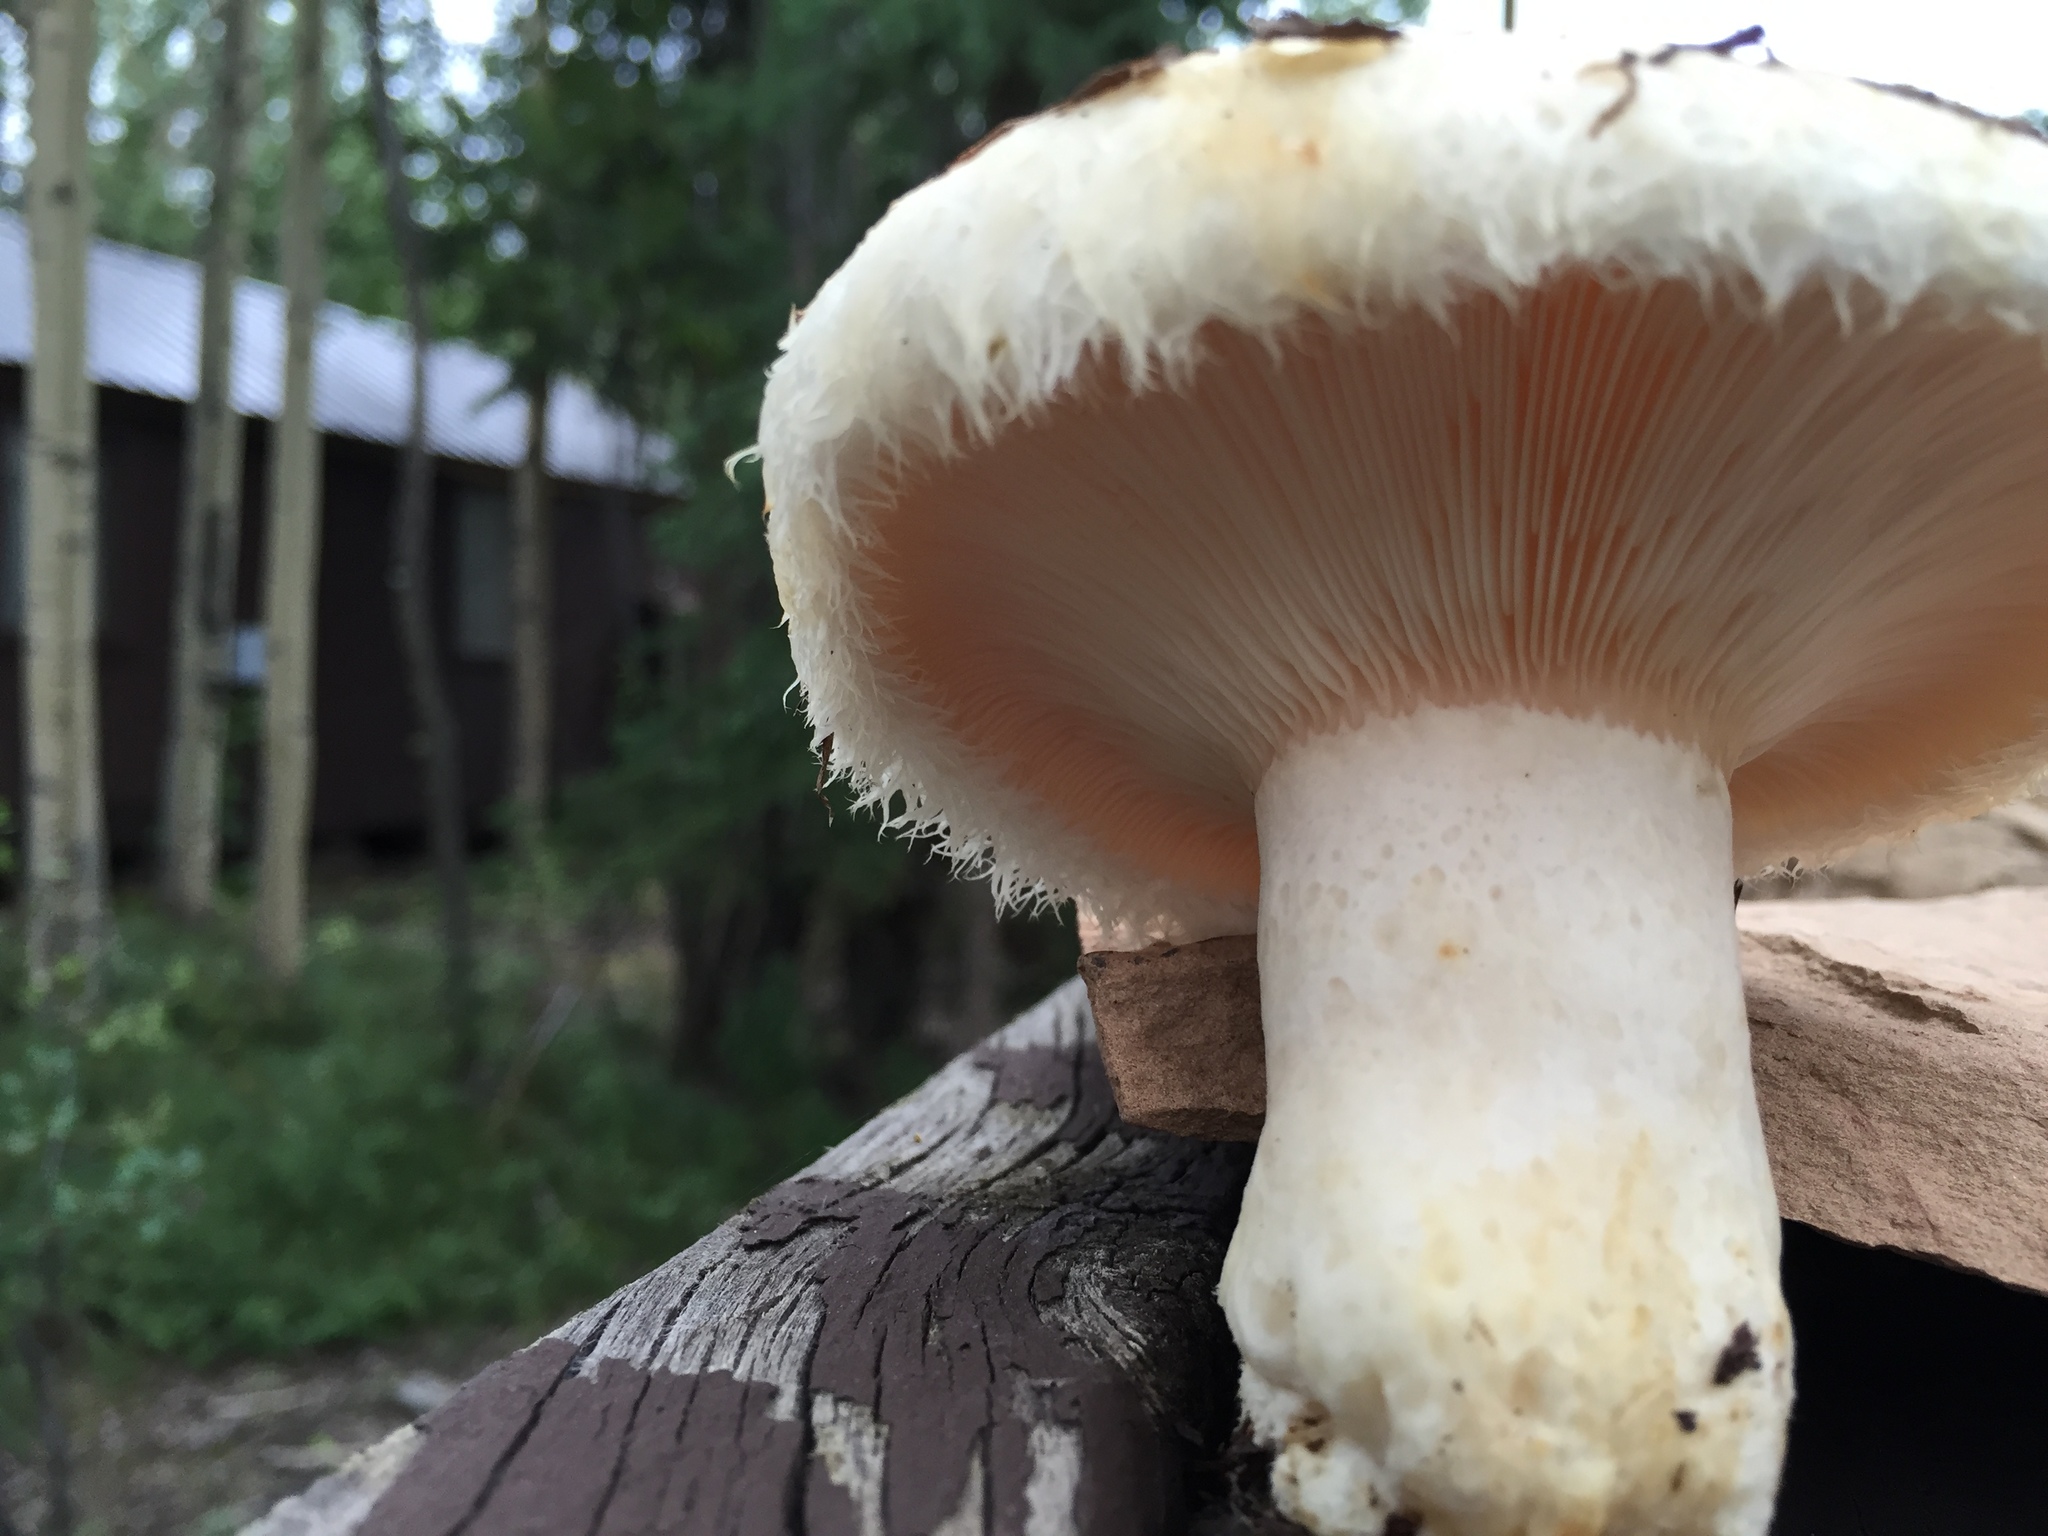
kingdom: Fungi
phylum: Basidiomycota
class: Agaricomycetes
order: Russulales
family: Russulaceae
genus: Lactarius
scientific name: Lactarius pubescens
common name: Bearded milkcap
